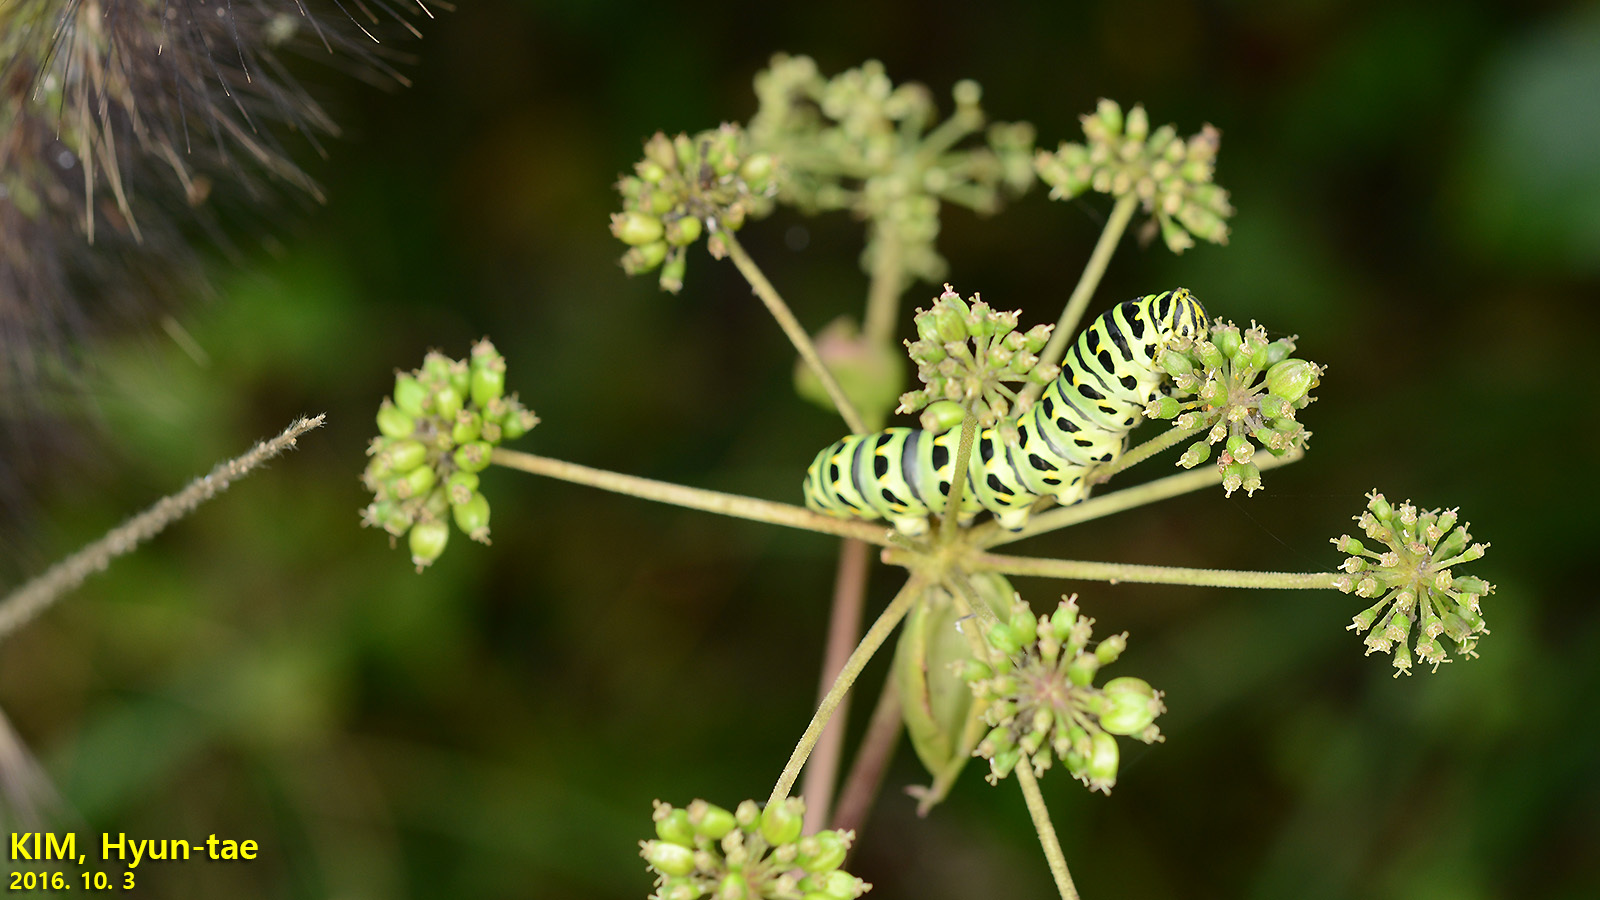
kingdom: Animalia
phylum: Arthropoda
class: Insecta
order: Lepidoptera
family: Papilionidae
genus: Papilio
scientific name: Papilio machaon
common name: Swallowtail
